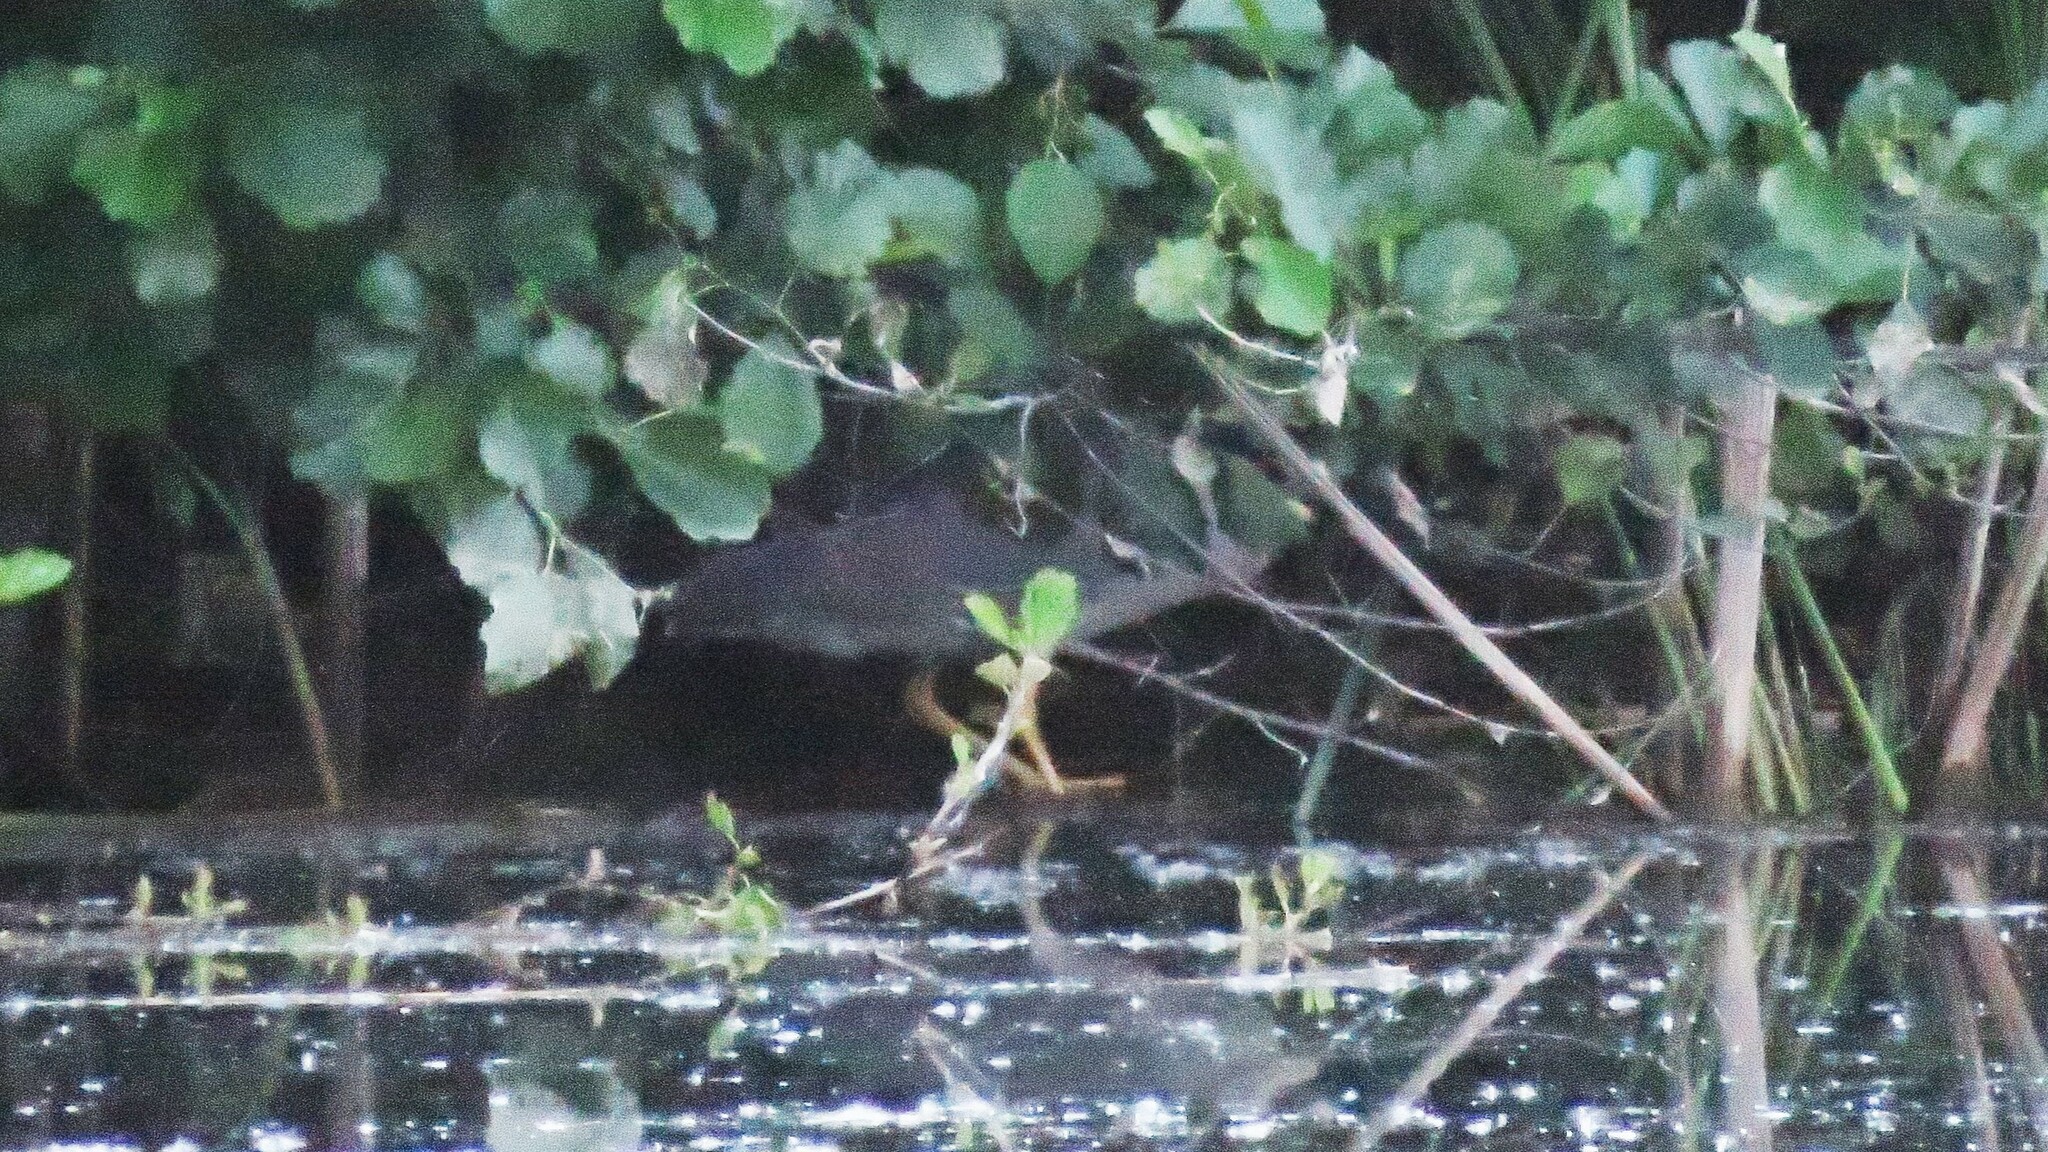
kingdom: Animalia
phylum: Chordata
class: Aves
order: Pelecaniformes
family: Ardeidae
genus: Nycticorax
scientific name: Nycticorax nycticorax
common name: Black-crowned night heron
